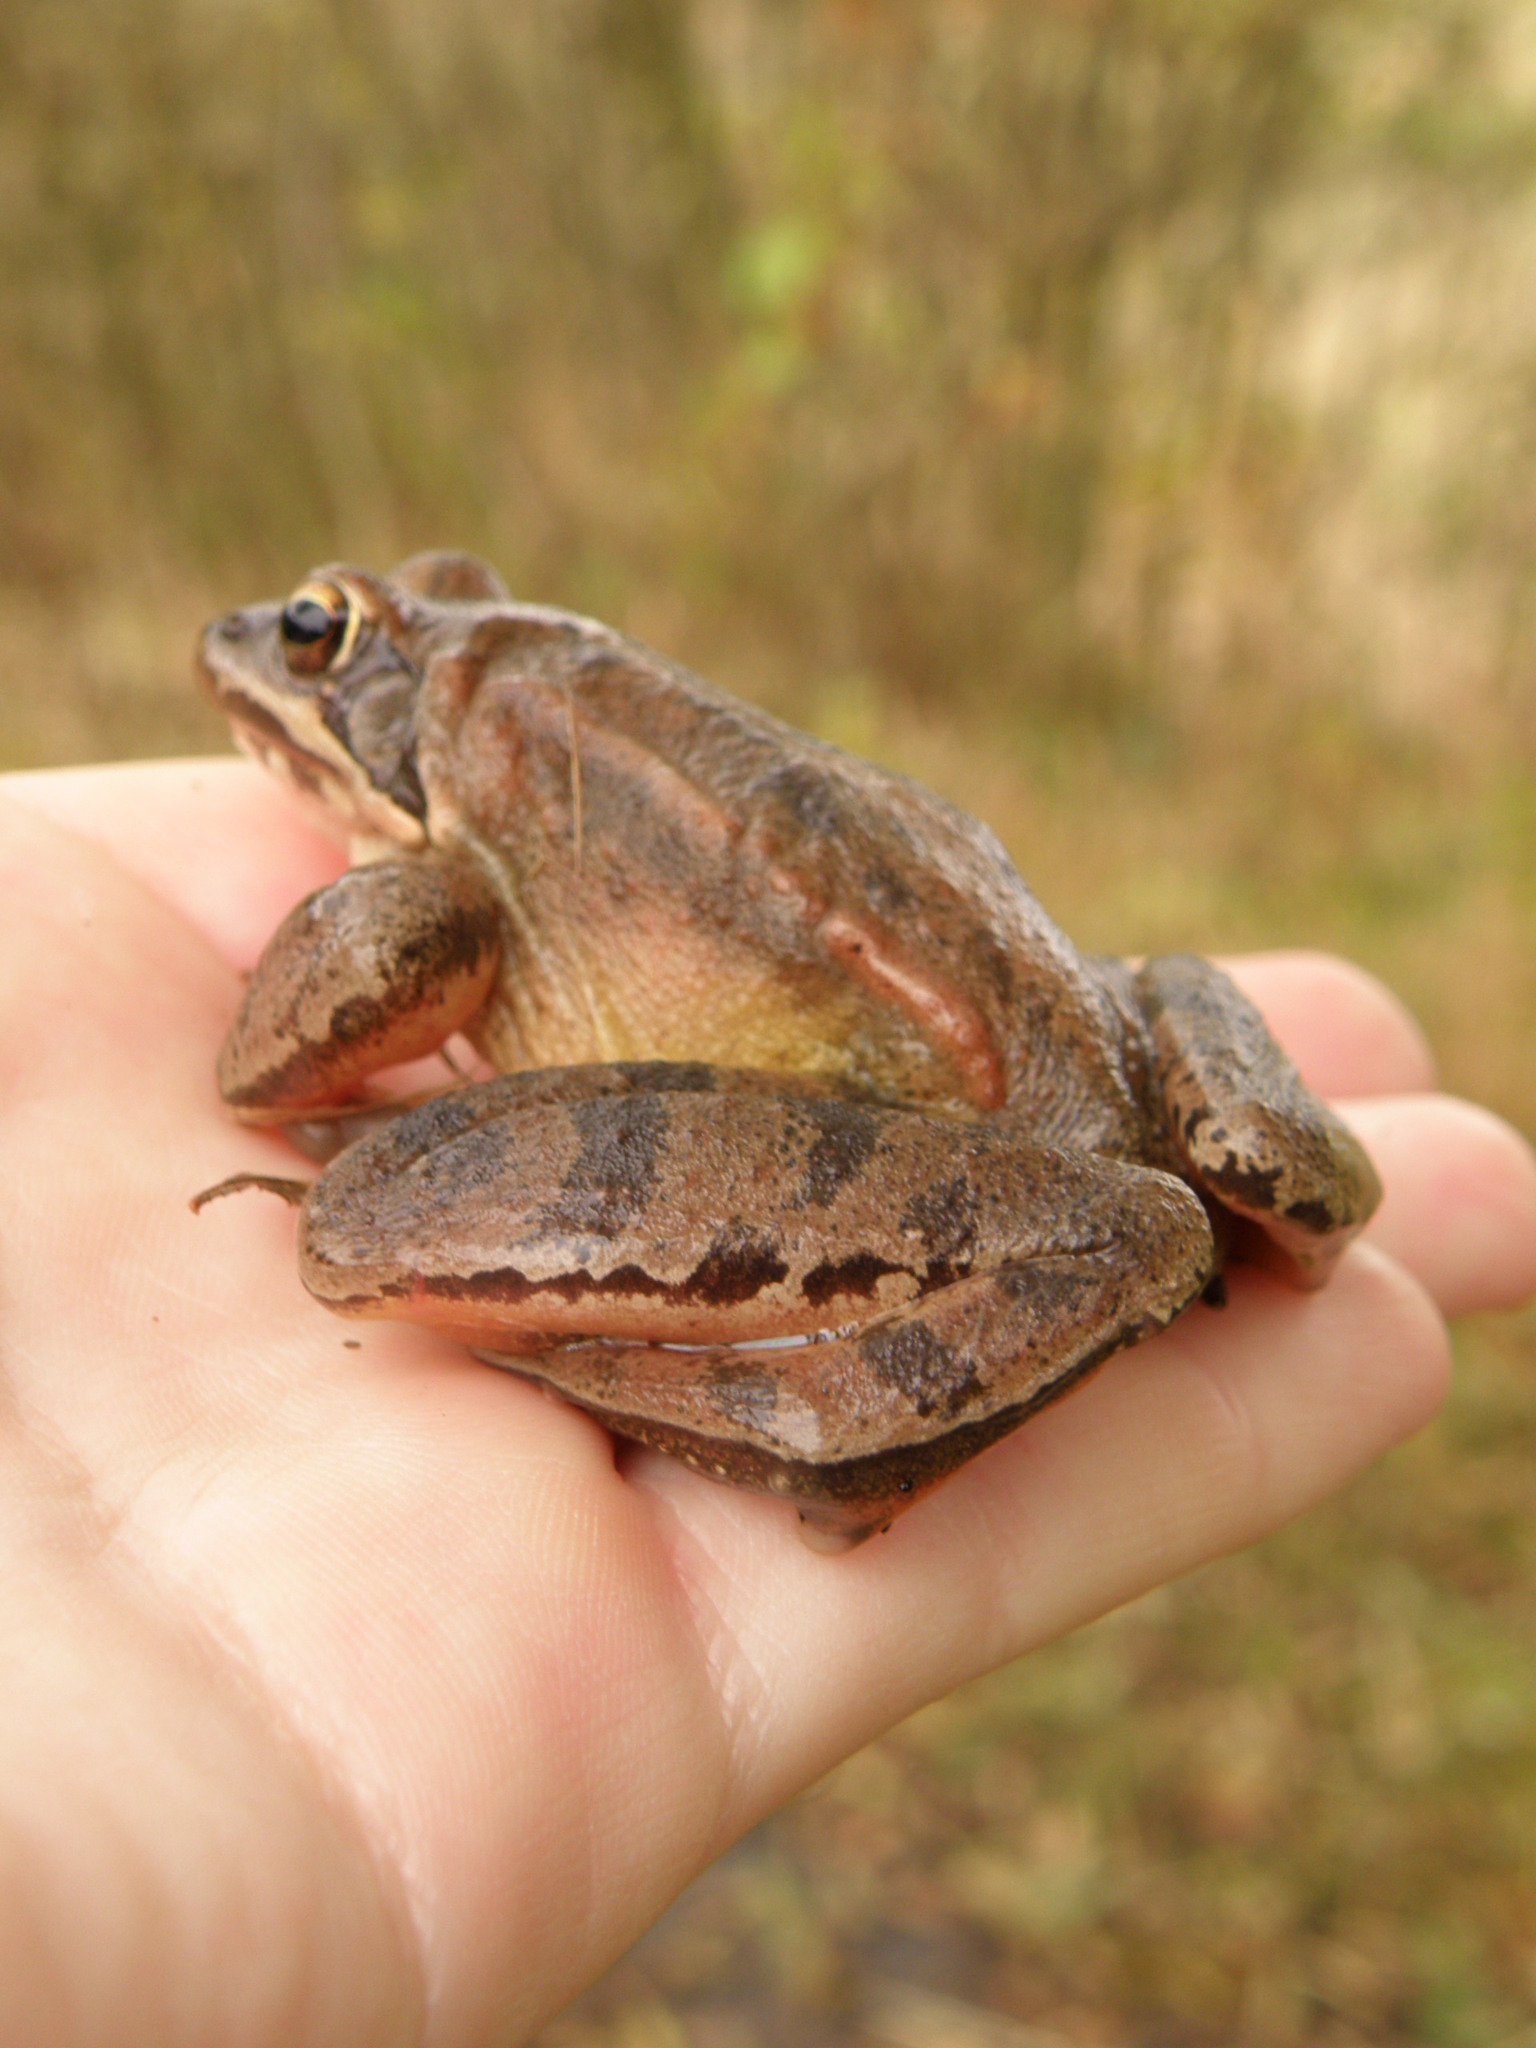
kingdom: Animalia
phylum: Chordata
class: Amphibia
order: Anura
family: Ranidae
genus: Rana
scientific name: Rana dalmatina
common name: Agile frog
